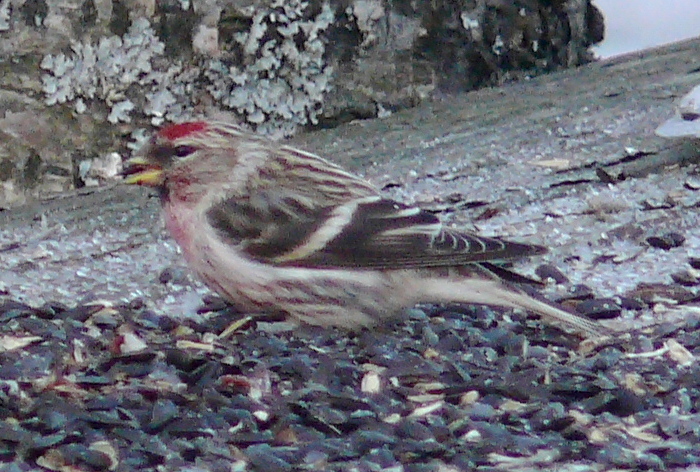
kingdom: Animalia
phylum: Chordata
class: Aves
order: Passeriformes
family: Fringillidae
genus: Acanthis
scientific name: Acanthis flammea
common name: Common redpoll
